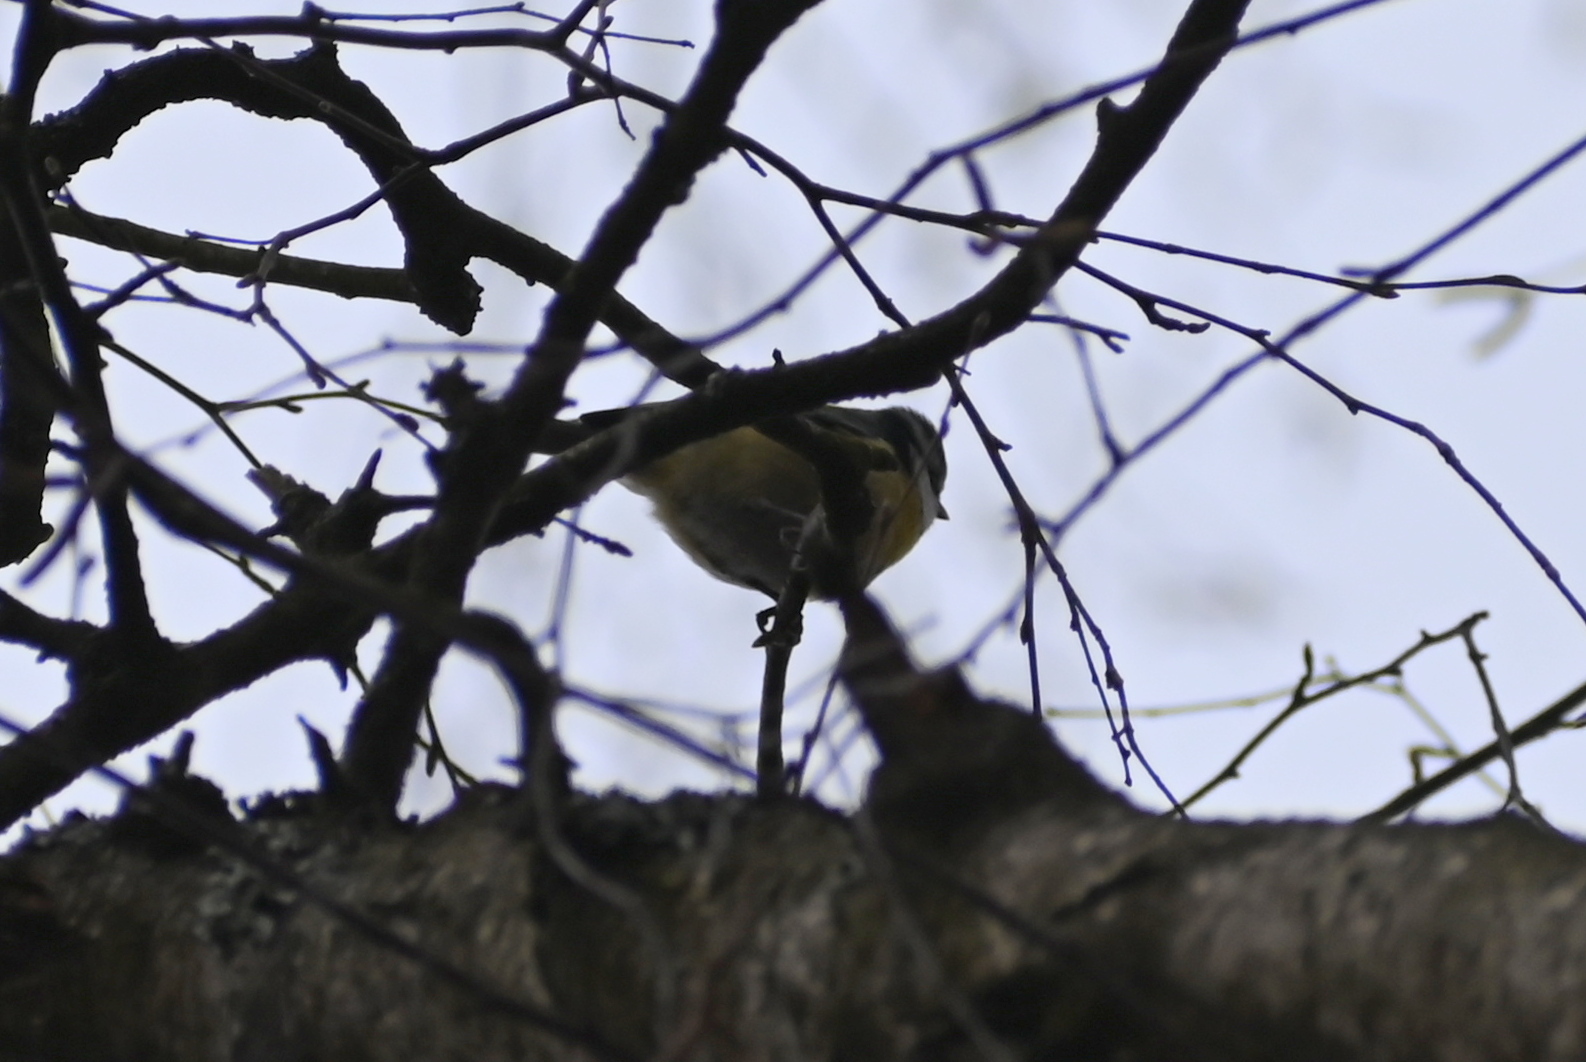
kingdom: Animalia
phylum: Chordata
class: Aves
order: Passeriformes
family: Paridae
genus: Cyanistes
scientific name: Cyanistes caeruleus
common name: Eurasian blue tit
